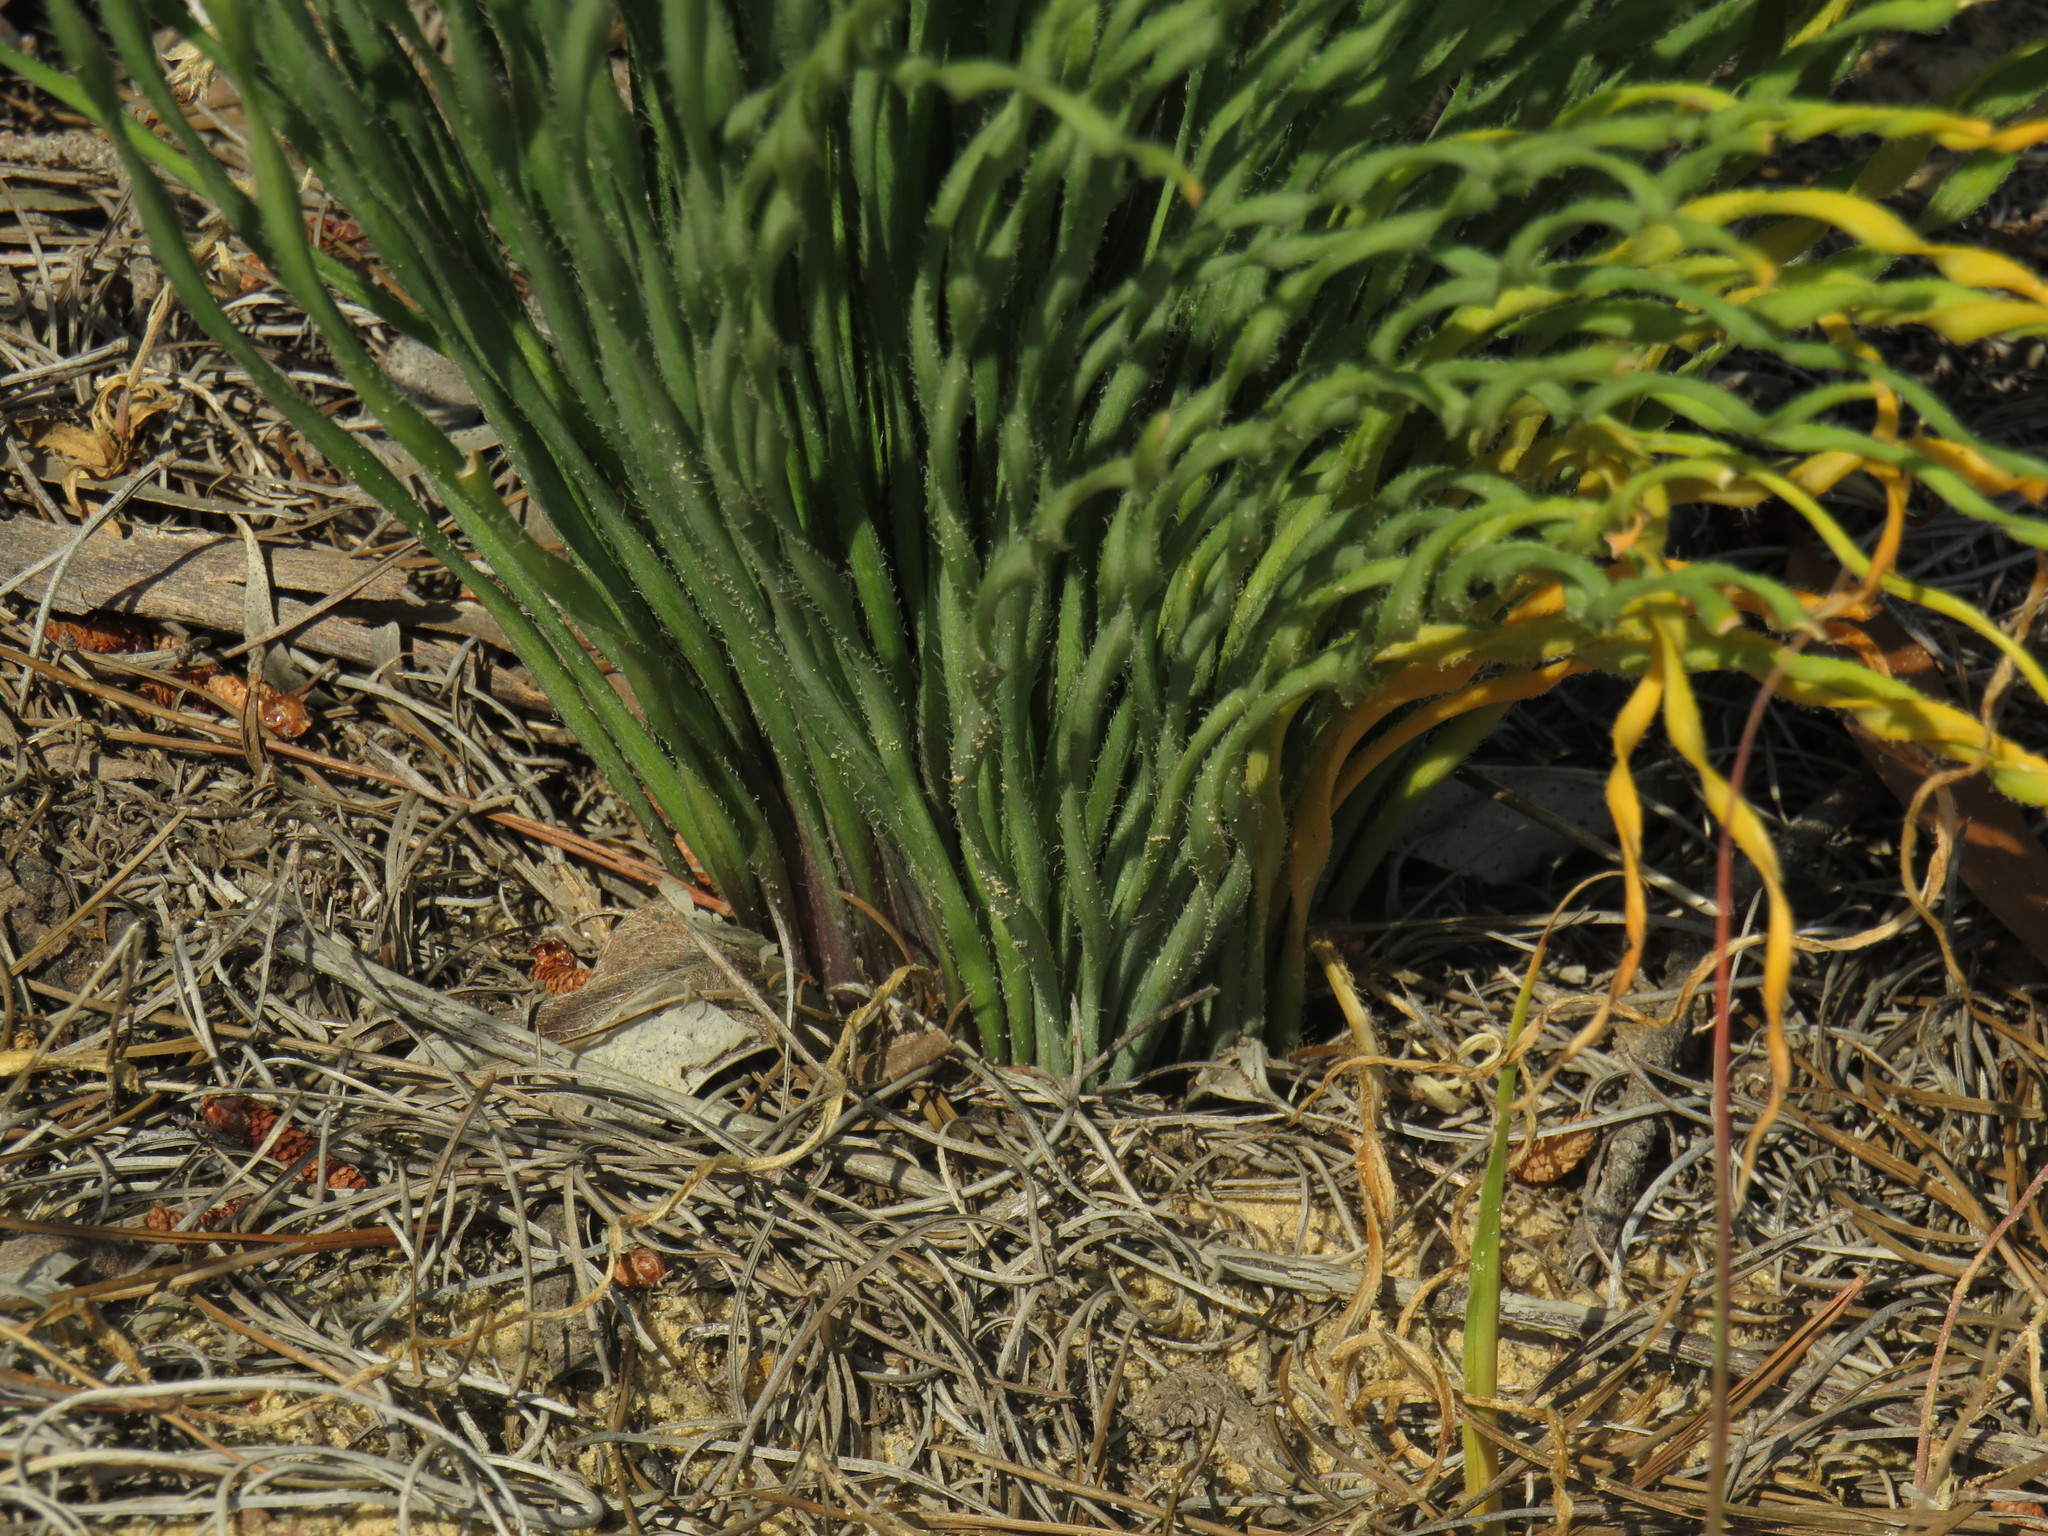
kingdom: Plantae
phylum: Tracheophyta
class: Liliopsida
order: Asparagales
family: Amaryllidaceae
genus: Gethyllis
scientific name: Gethyllis ciliaris
